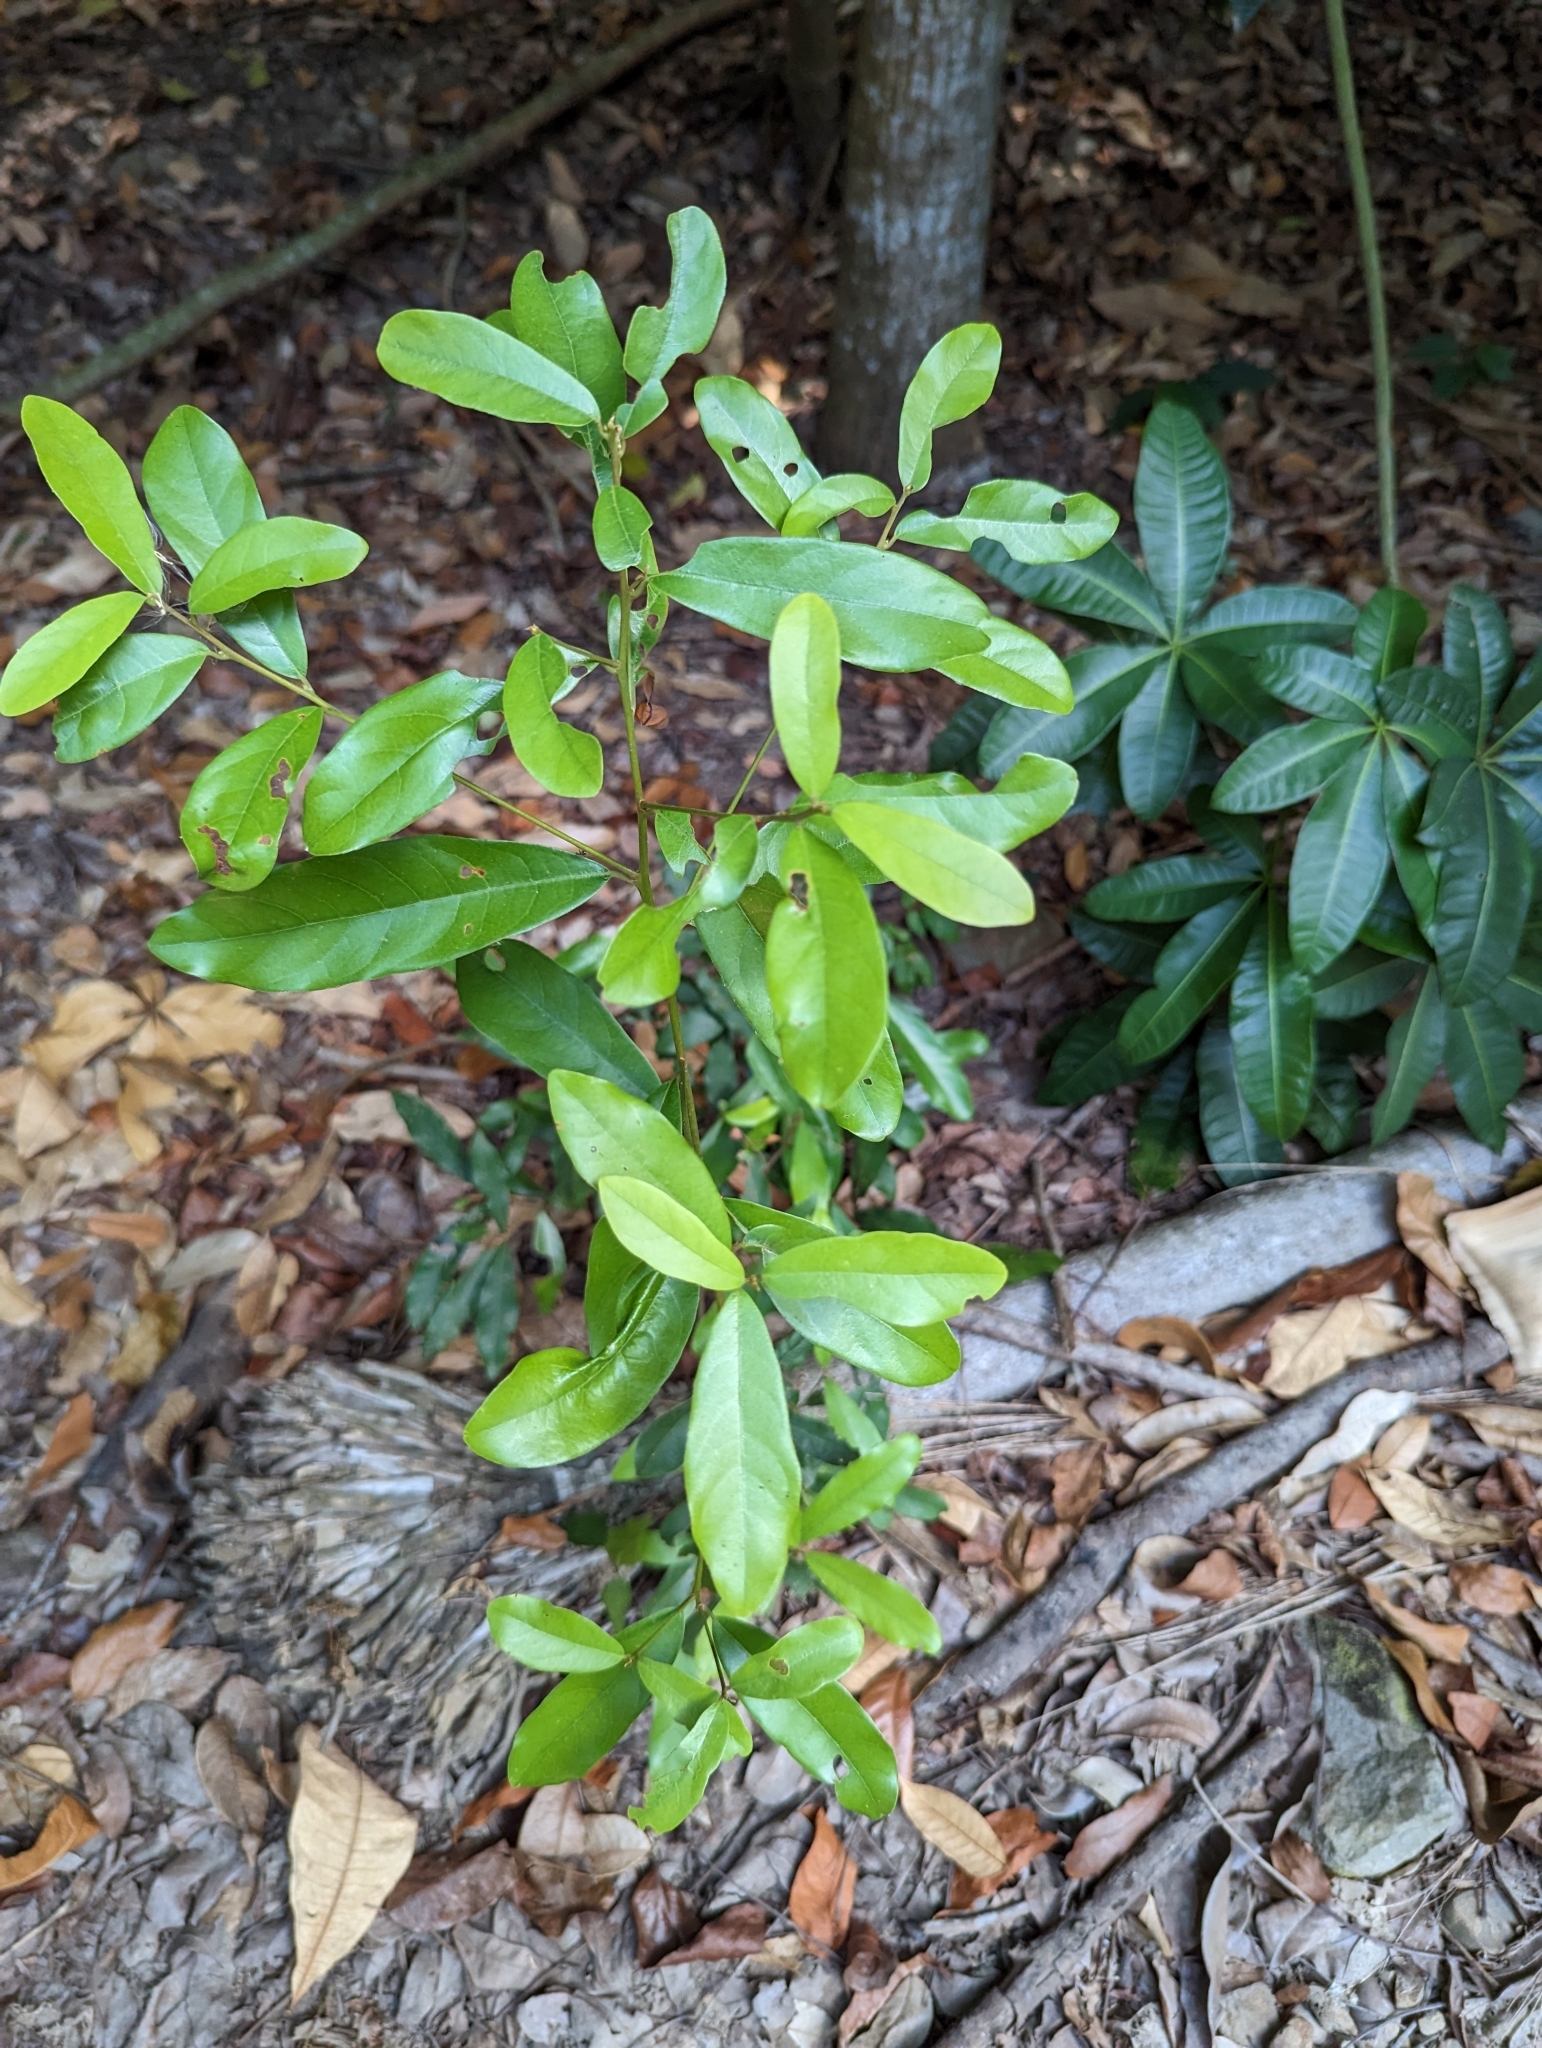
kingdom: Plantae
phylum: Tracheophyta
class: Magnoliopsida
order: Laurales
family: Lauraceae
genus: Litsea
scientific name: Litsea hypophaea
